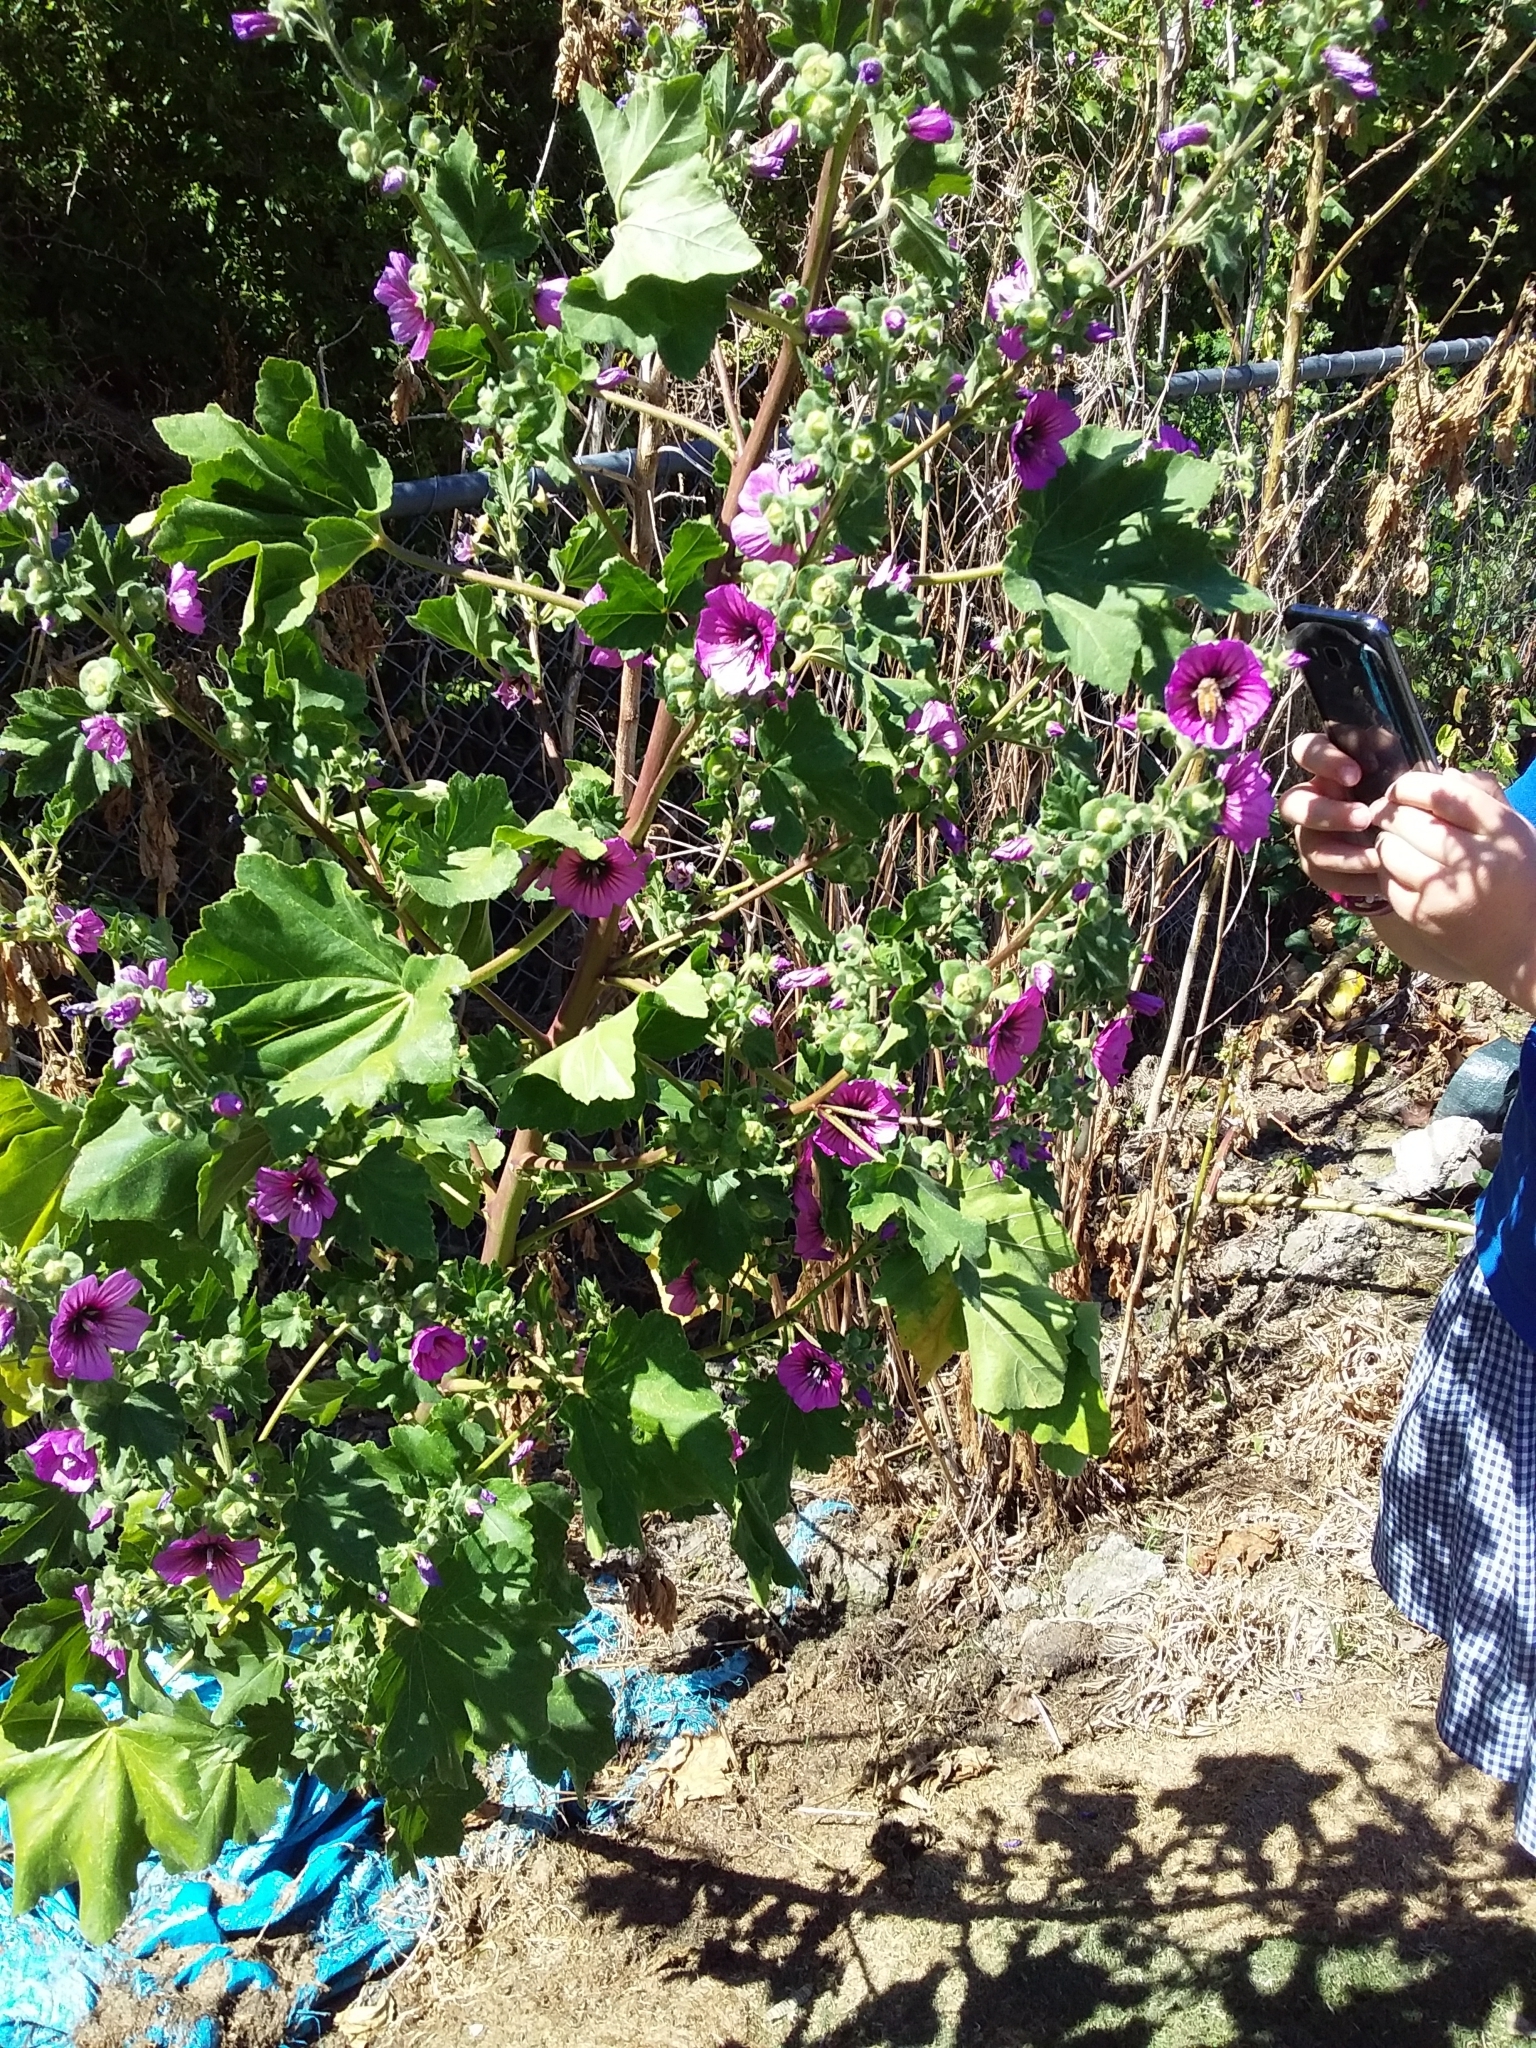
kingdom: Plantae
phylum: Tracheophyta
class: Magnoliopsida
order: Malvales
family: Malvaceae
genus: Malva
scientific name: Malva arborea
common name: Tree mallow
